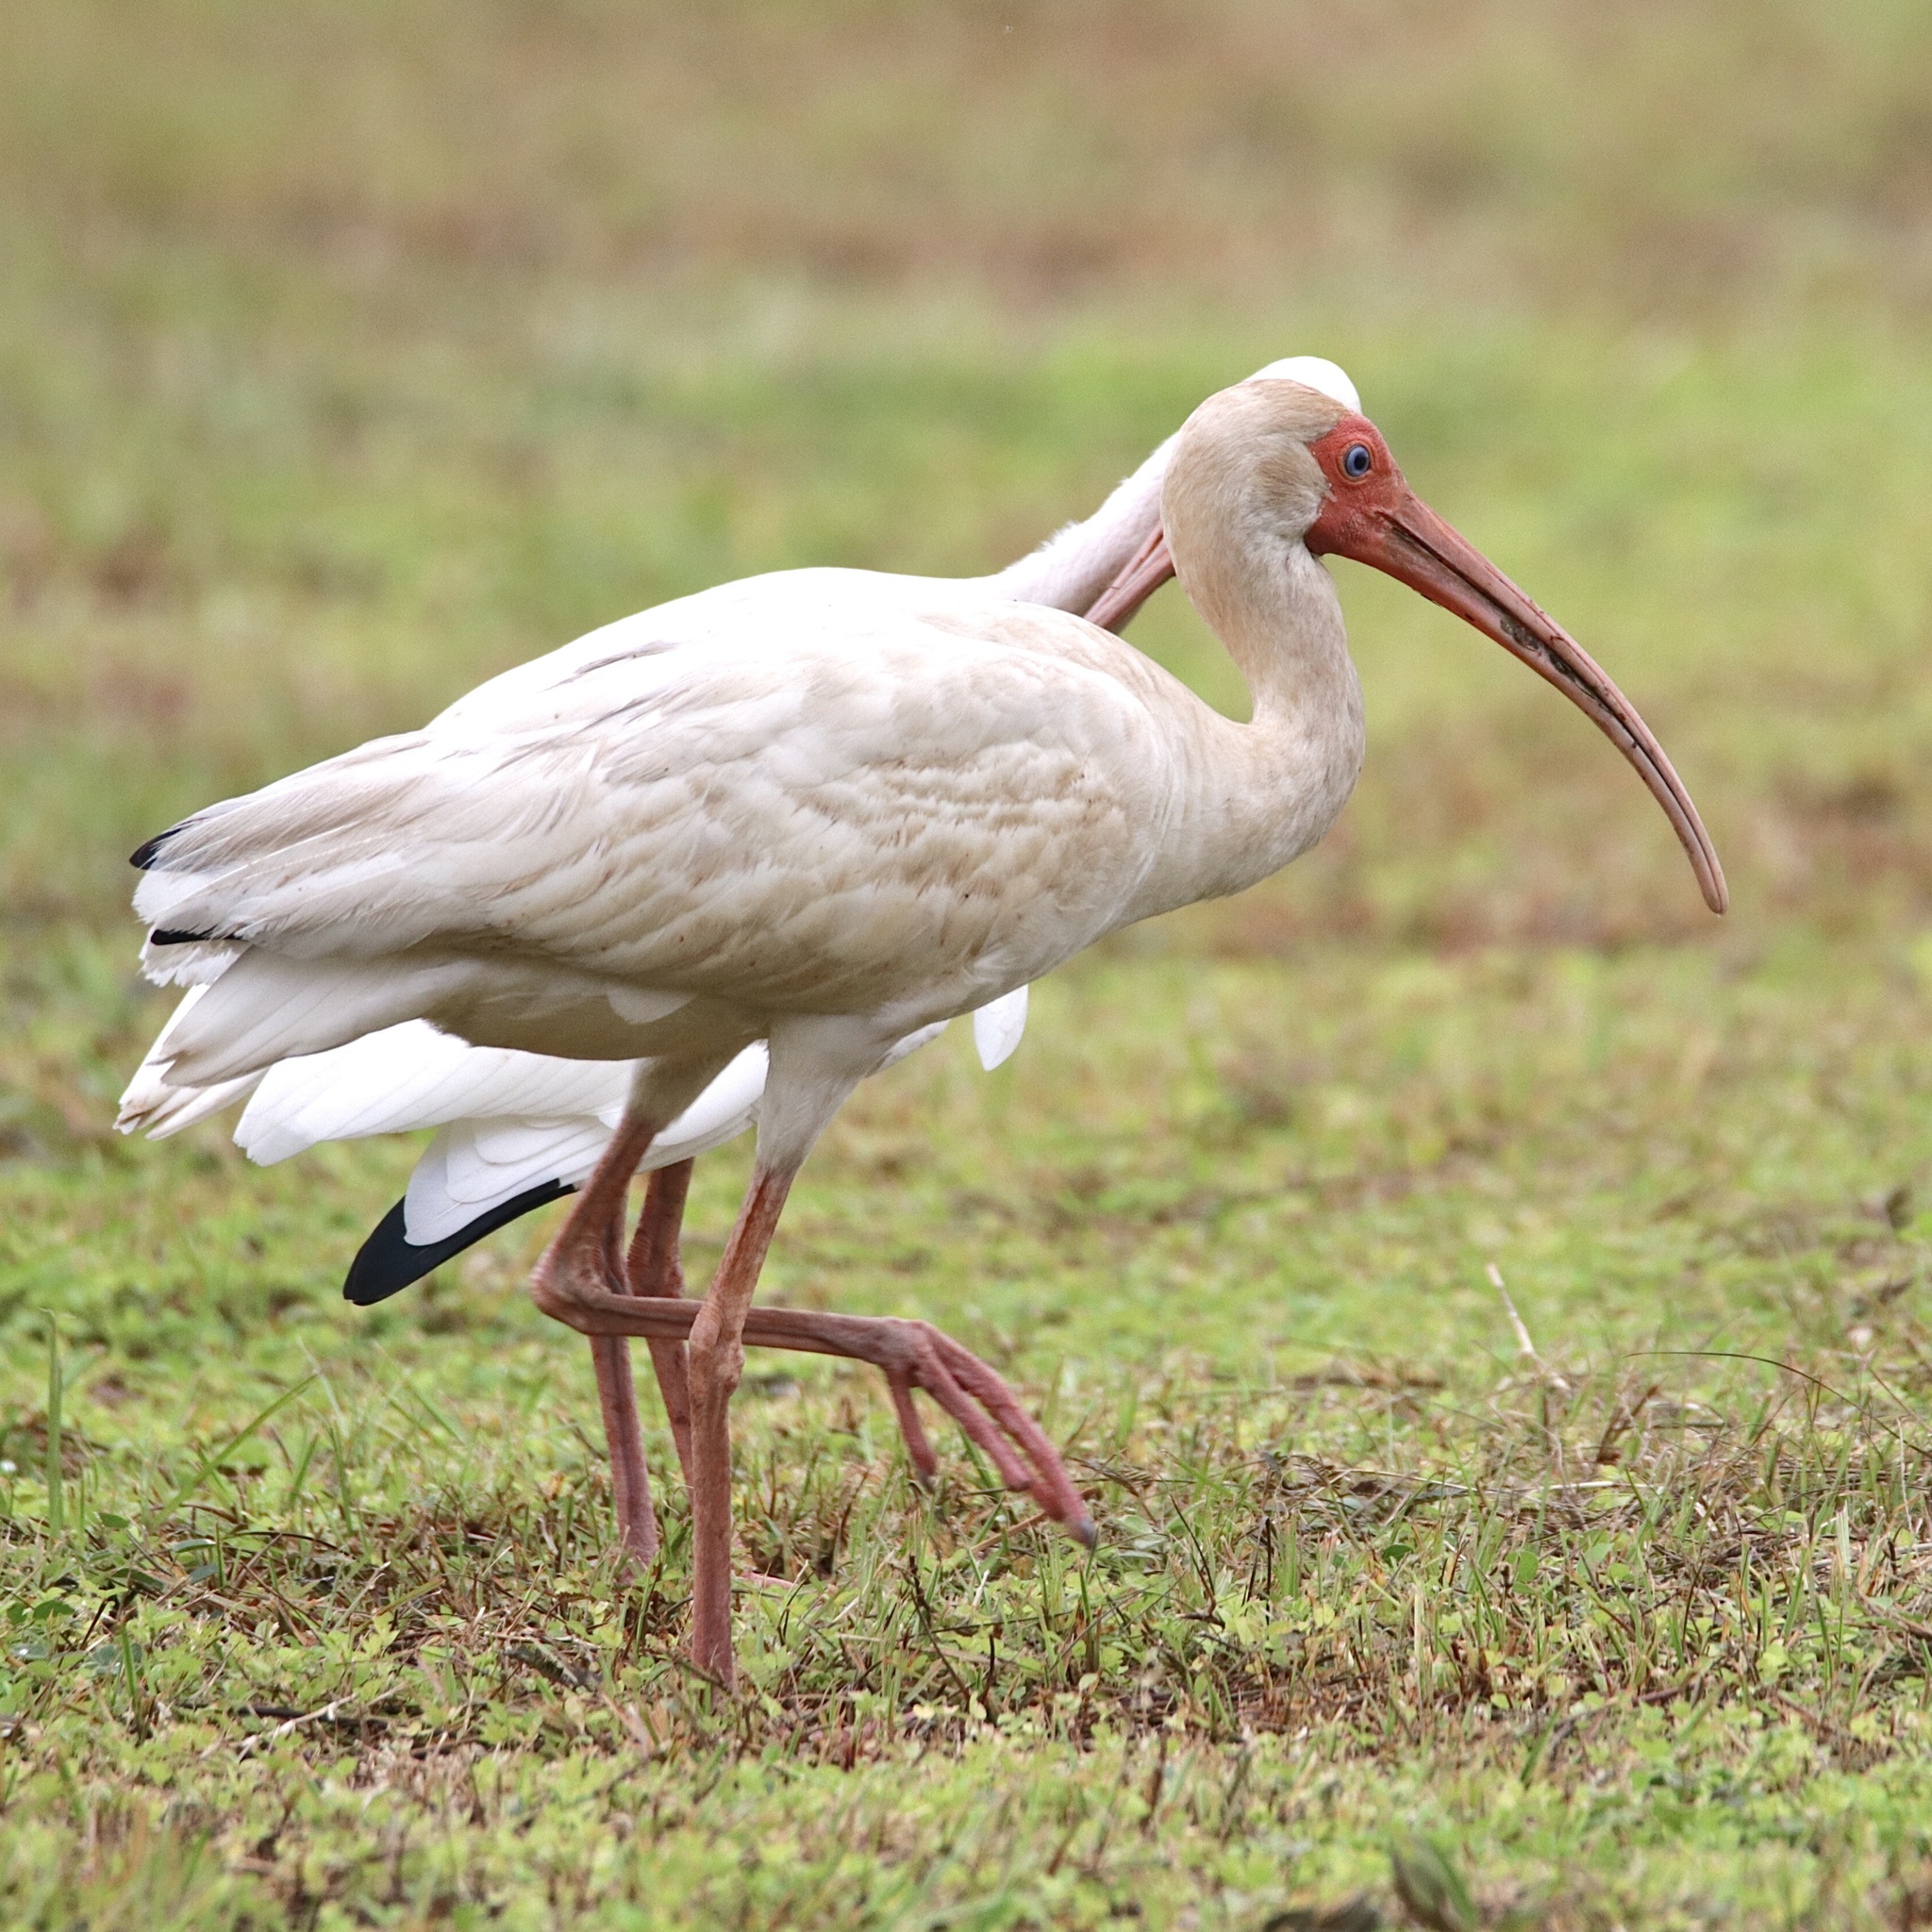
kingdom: Animalia
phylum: Chordata
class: Aves
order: Pelecaniformes
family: Threskiornithidae
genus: Eudocimus
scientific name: Eudocimus albus
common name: White ibis
